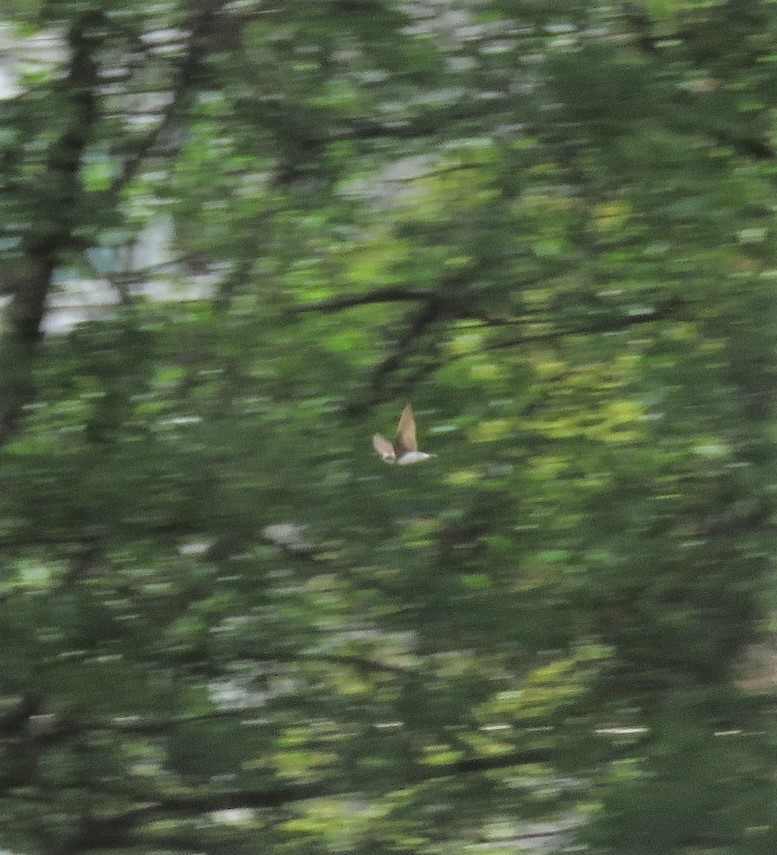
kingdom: Animalia
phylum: Chordata
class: Aves
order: Passeriformes
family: Hirundinidae
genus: Riparia
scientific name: Riparia riparia
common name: Sand martin
